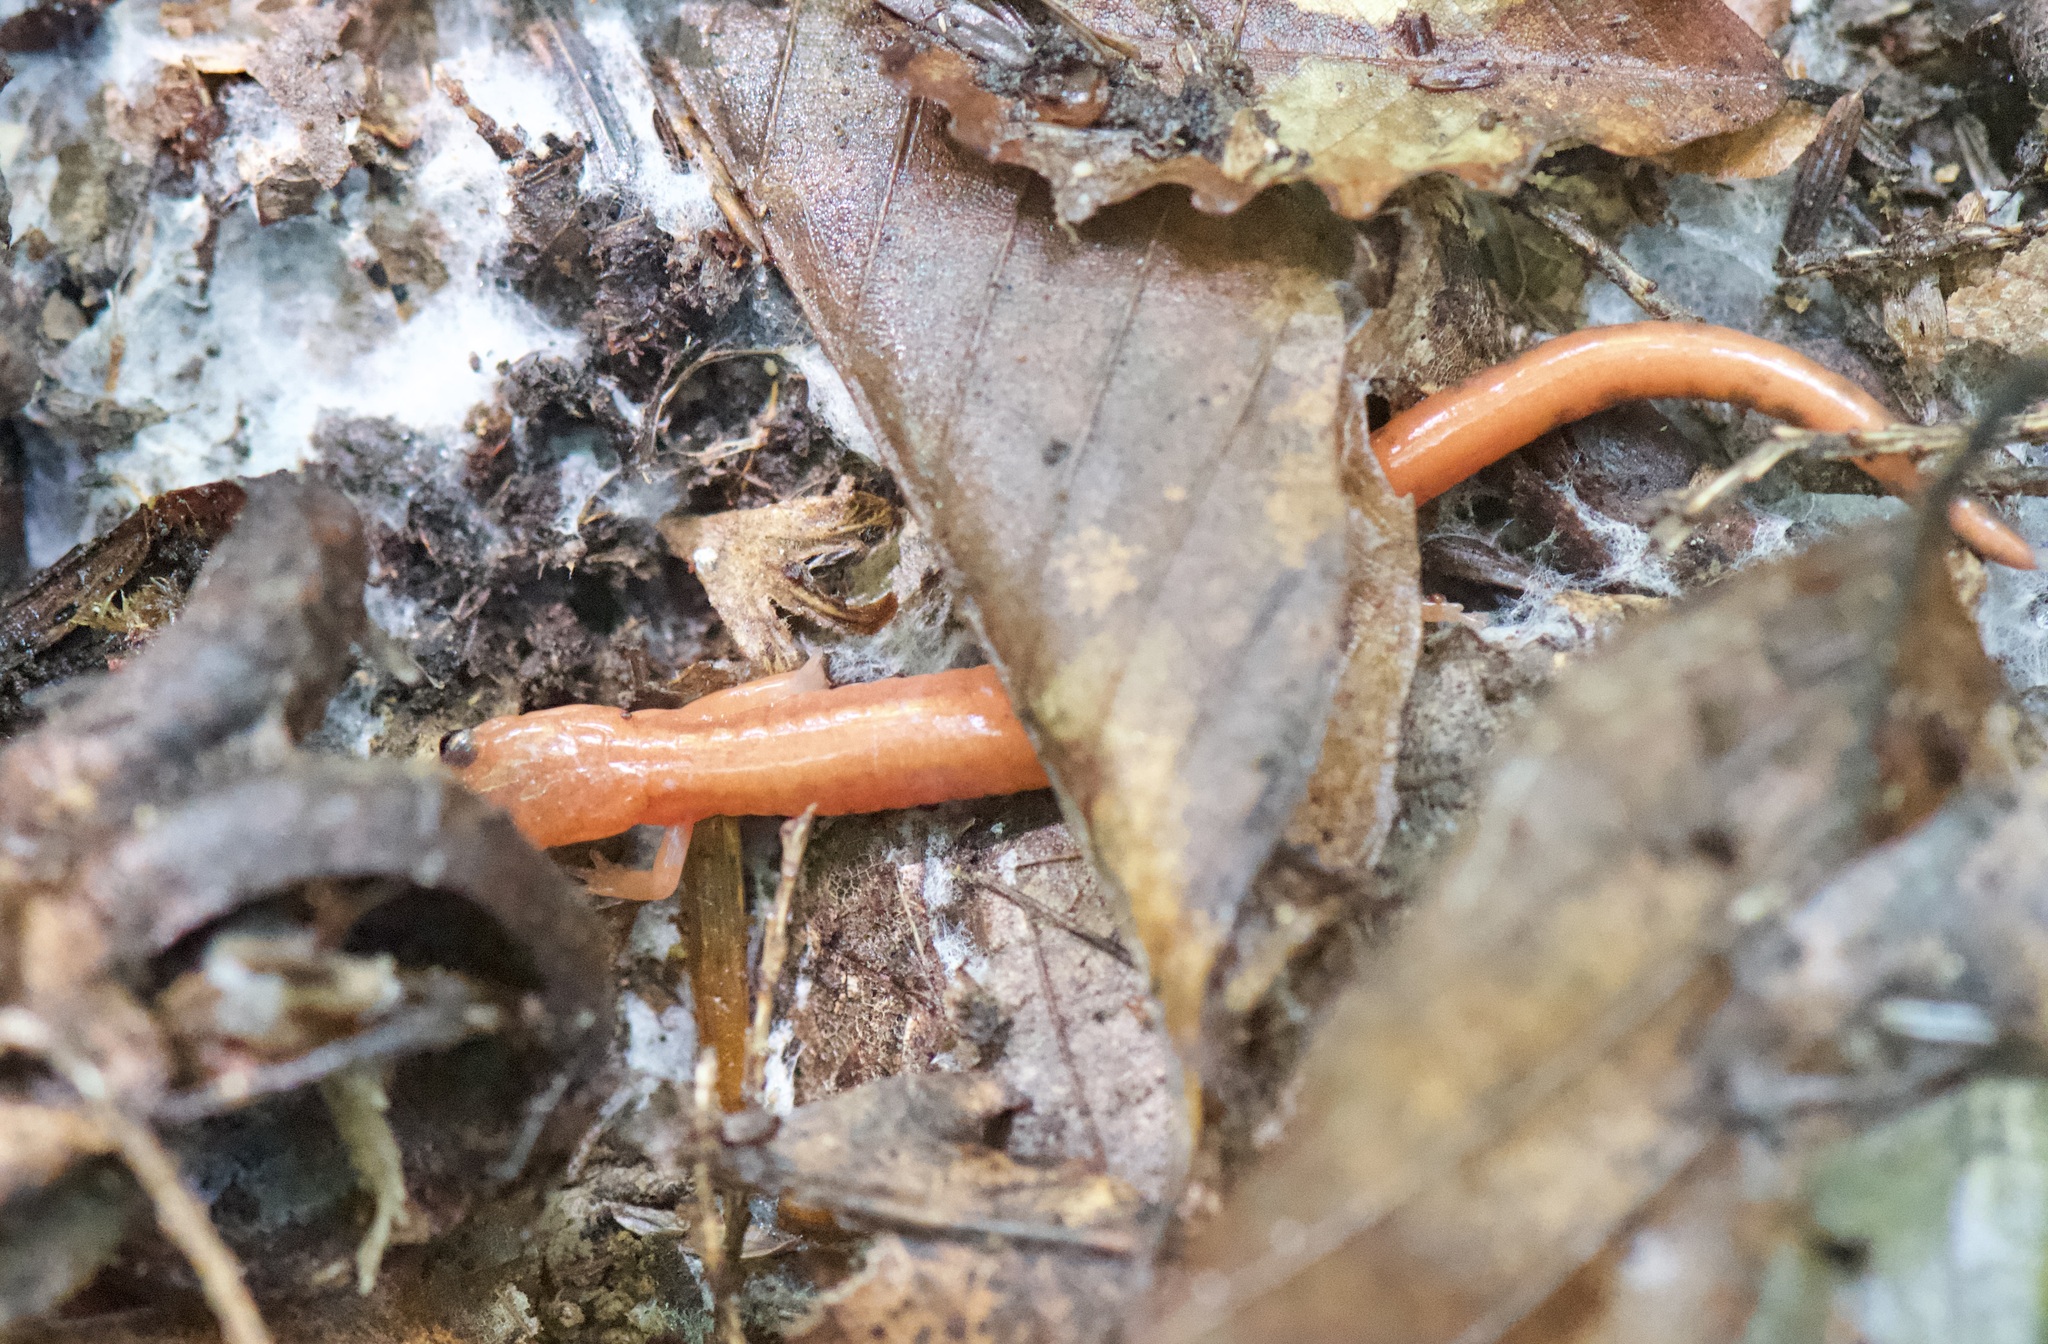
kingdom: Animalia
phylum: Chordata
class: Amphibia
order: Caudata
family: Plethodontidae
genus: Plethodon
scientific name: Plethodon cinereus
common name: Redback salamander
